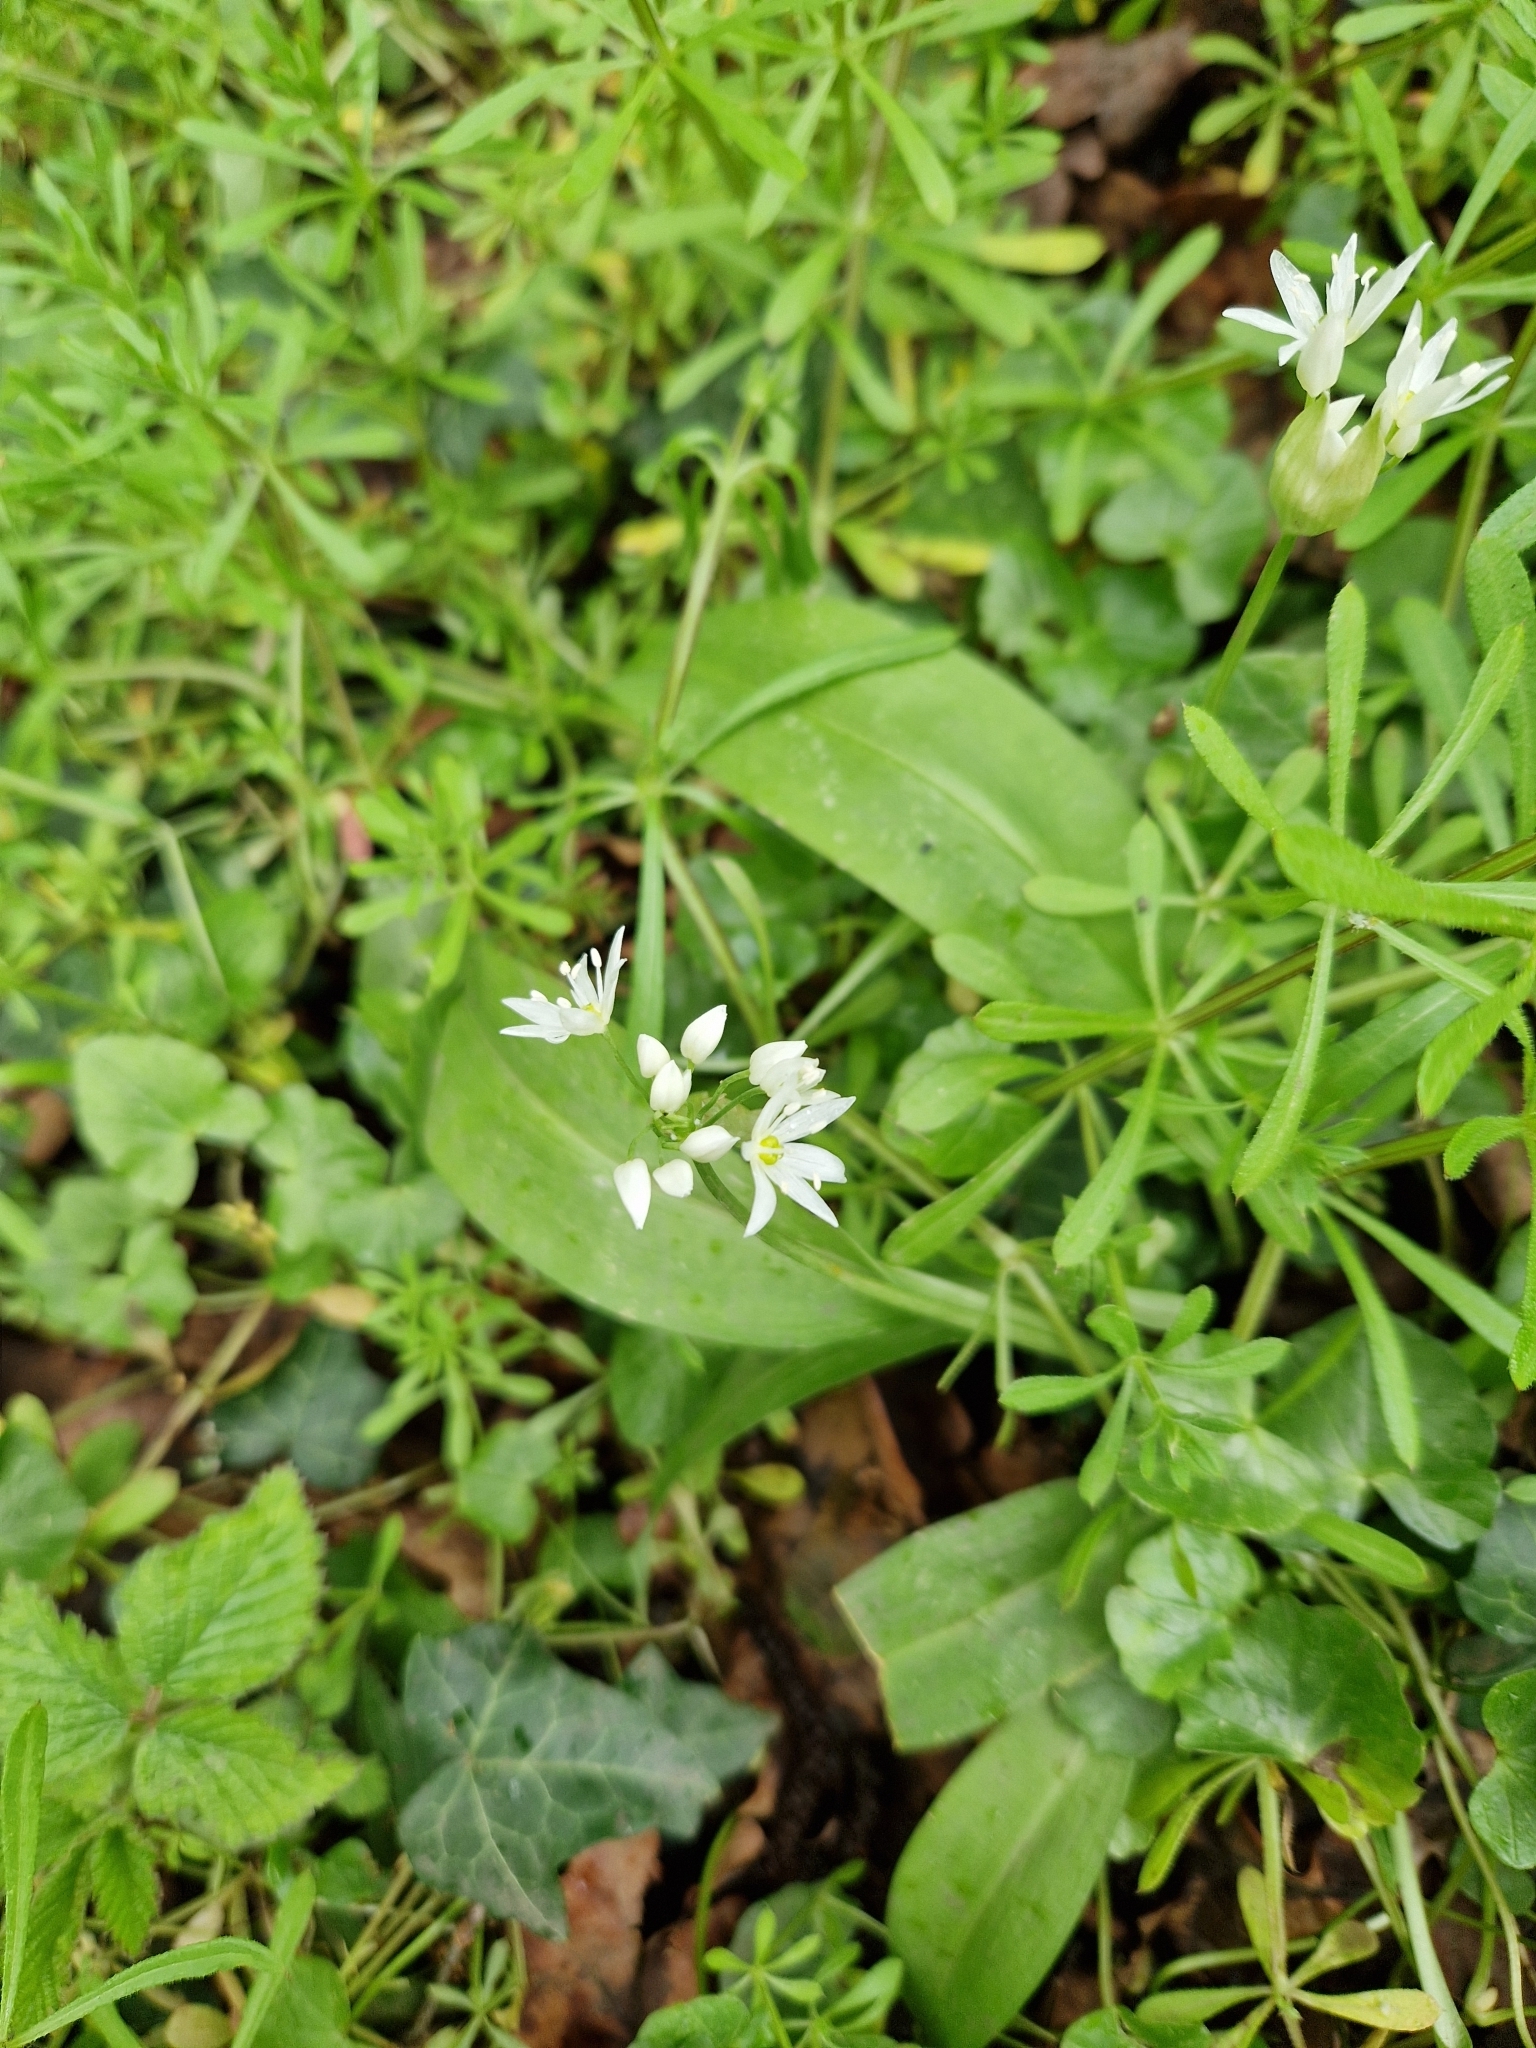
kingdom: Plantae
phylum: Tracheophyta
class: Liliopsida
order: Asparagales
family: Amaryllidaceae
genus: Allium
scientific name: Allium ursinum
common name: Ramsons
